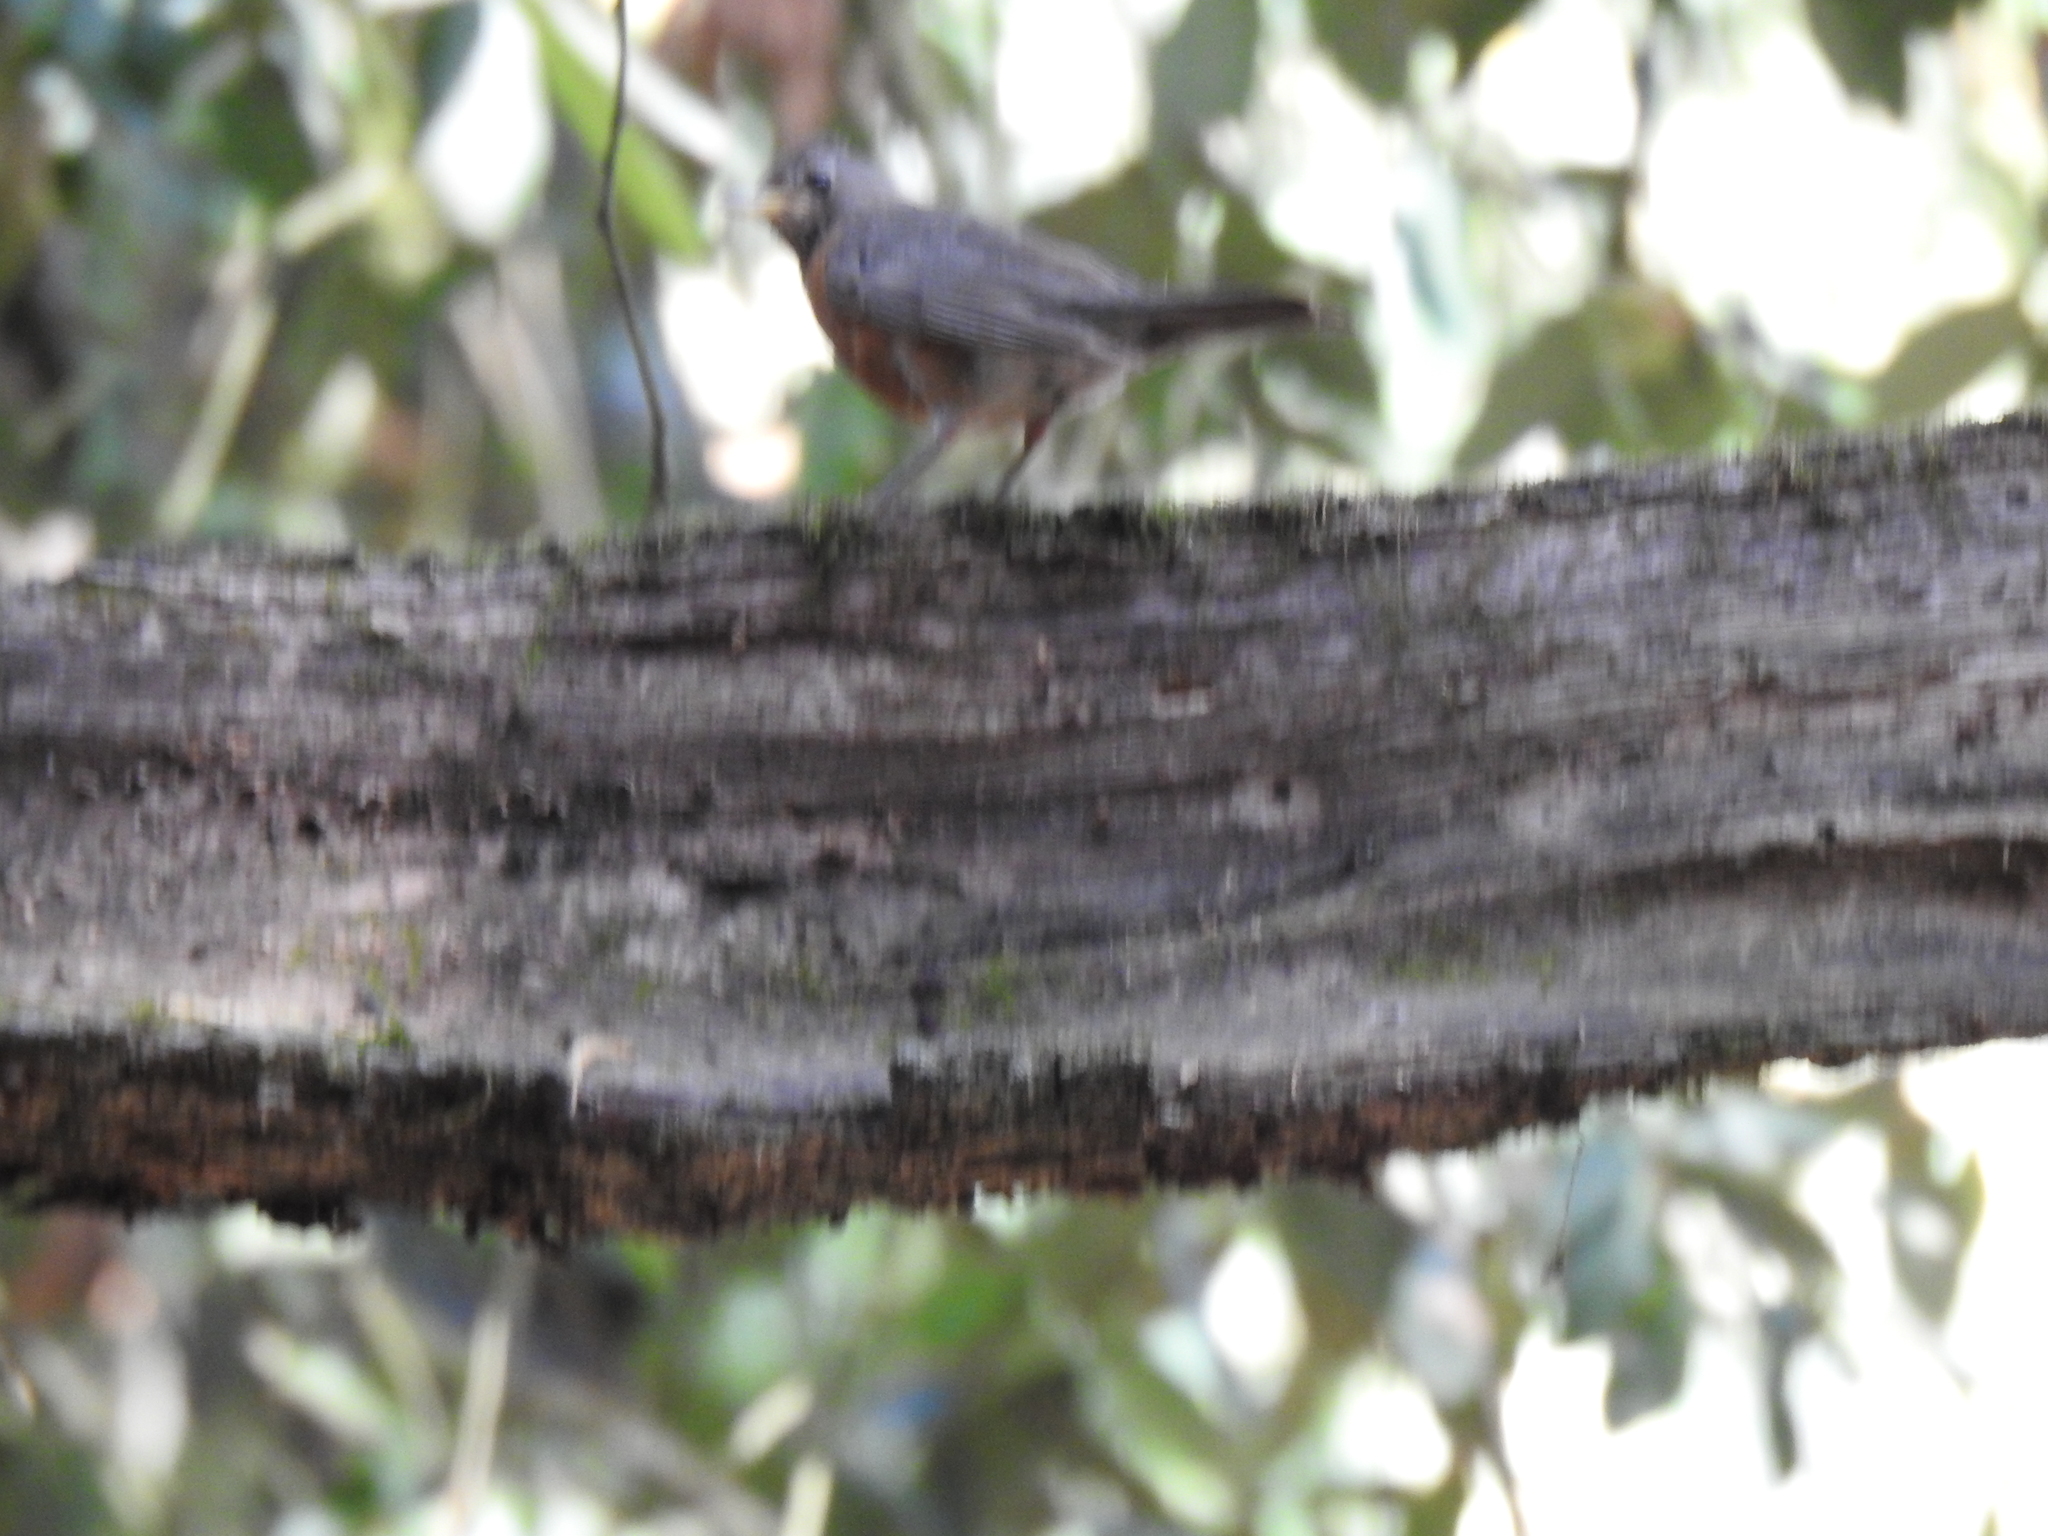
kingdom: Animalia
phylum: Chordata
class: Aves
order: Passeriformes
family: Turdidae
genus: Turdus
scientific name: Turdus migratorius
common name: American robin
